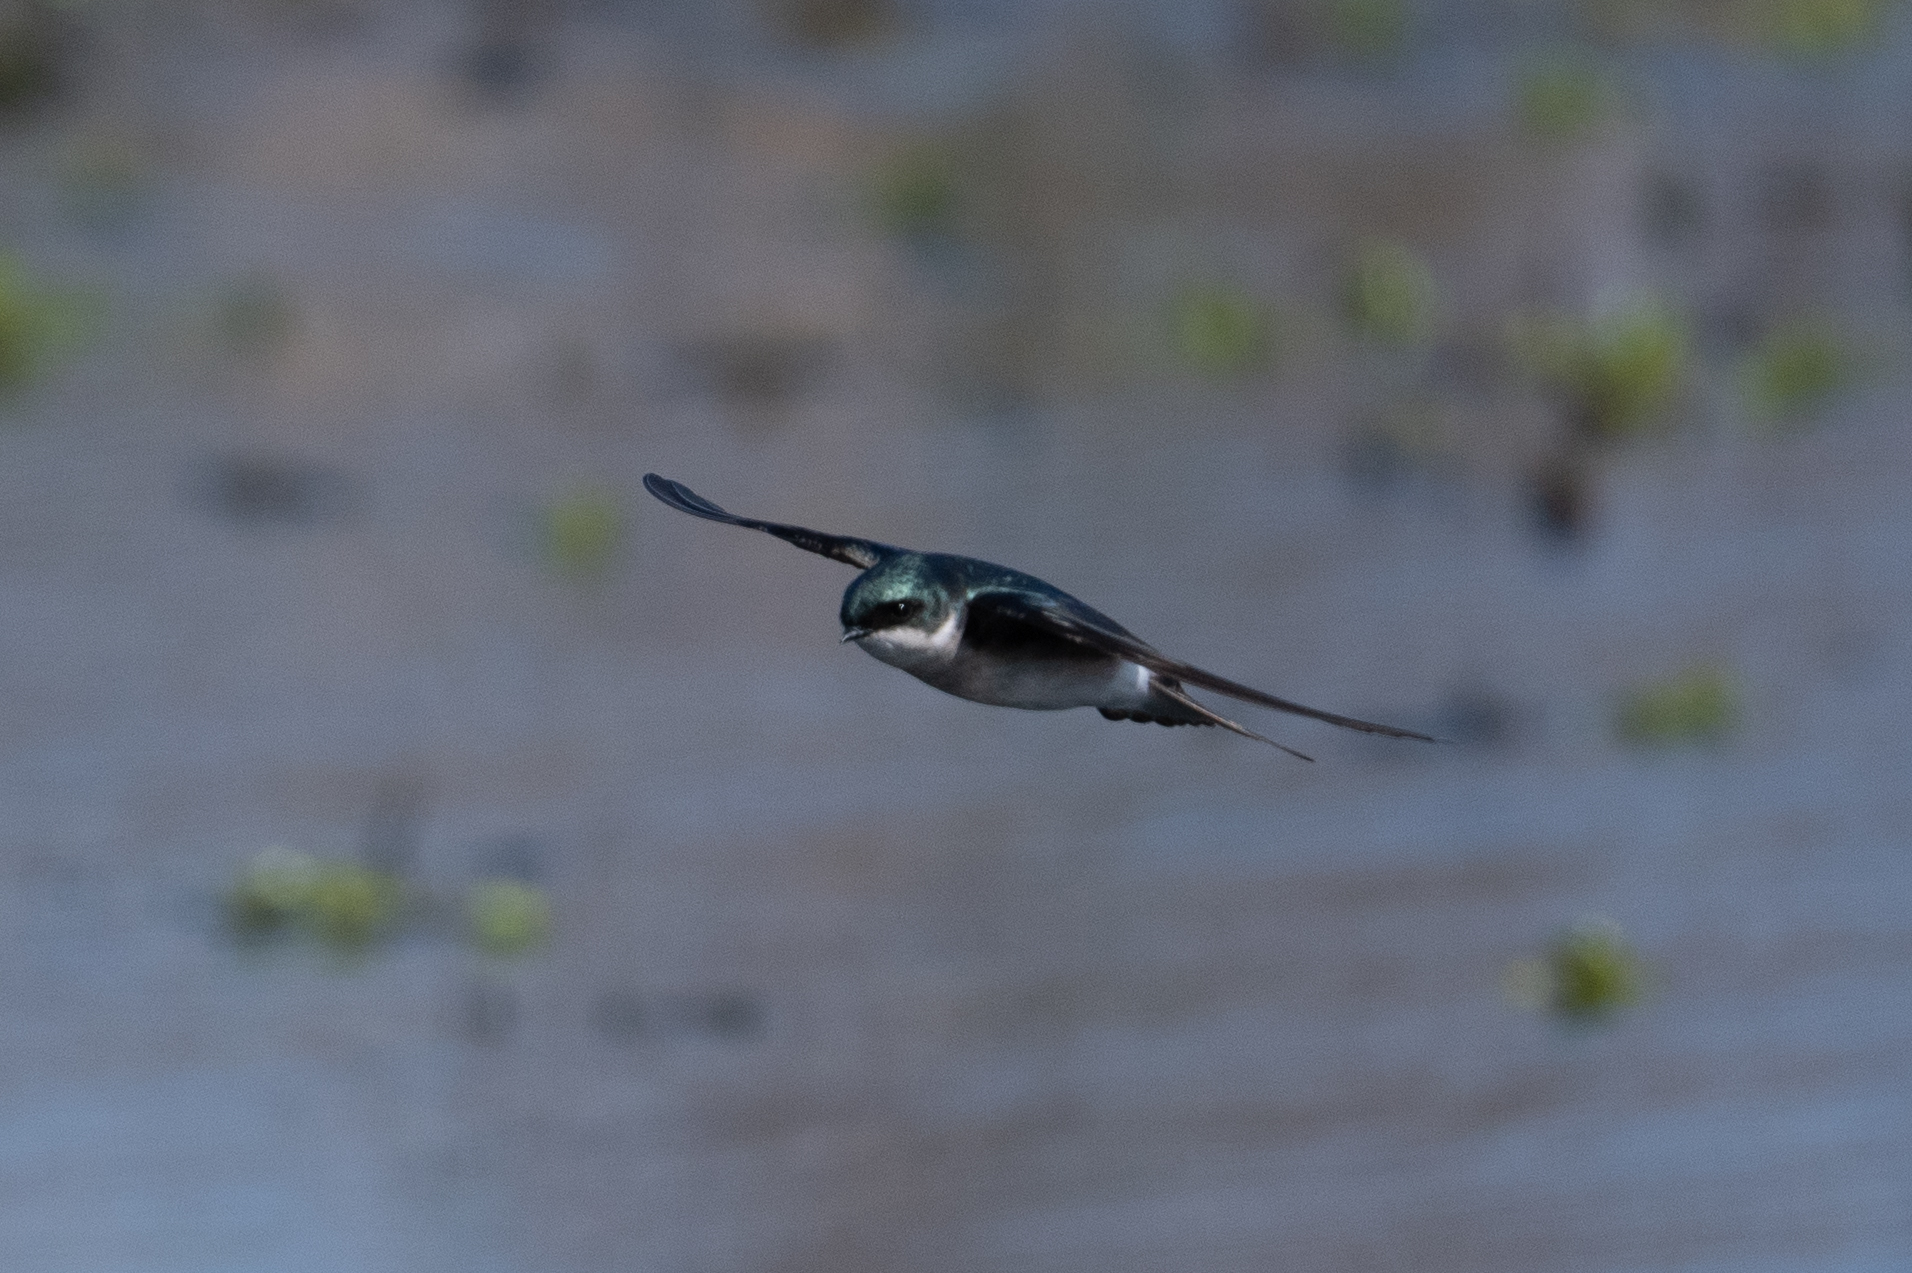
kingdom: Animalia
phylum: Chordata
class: Aves
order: Passeriformes
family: Hirundinidae
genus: Tachycineta
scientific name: Tachycineta bicolor
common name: Tree swallow
